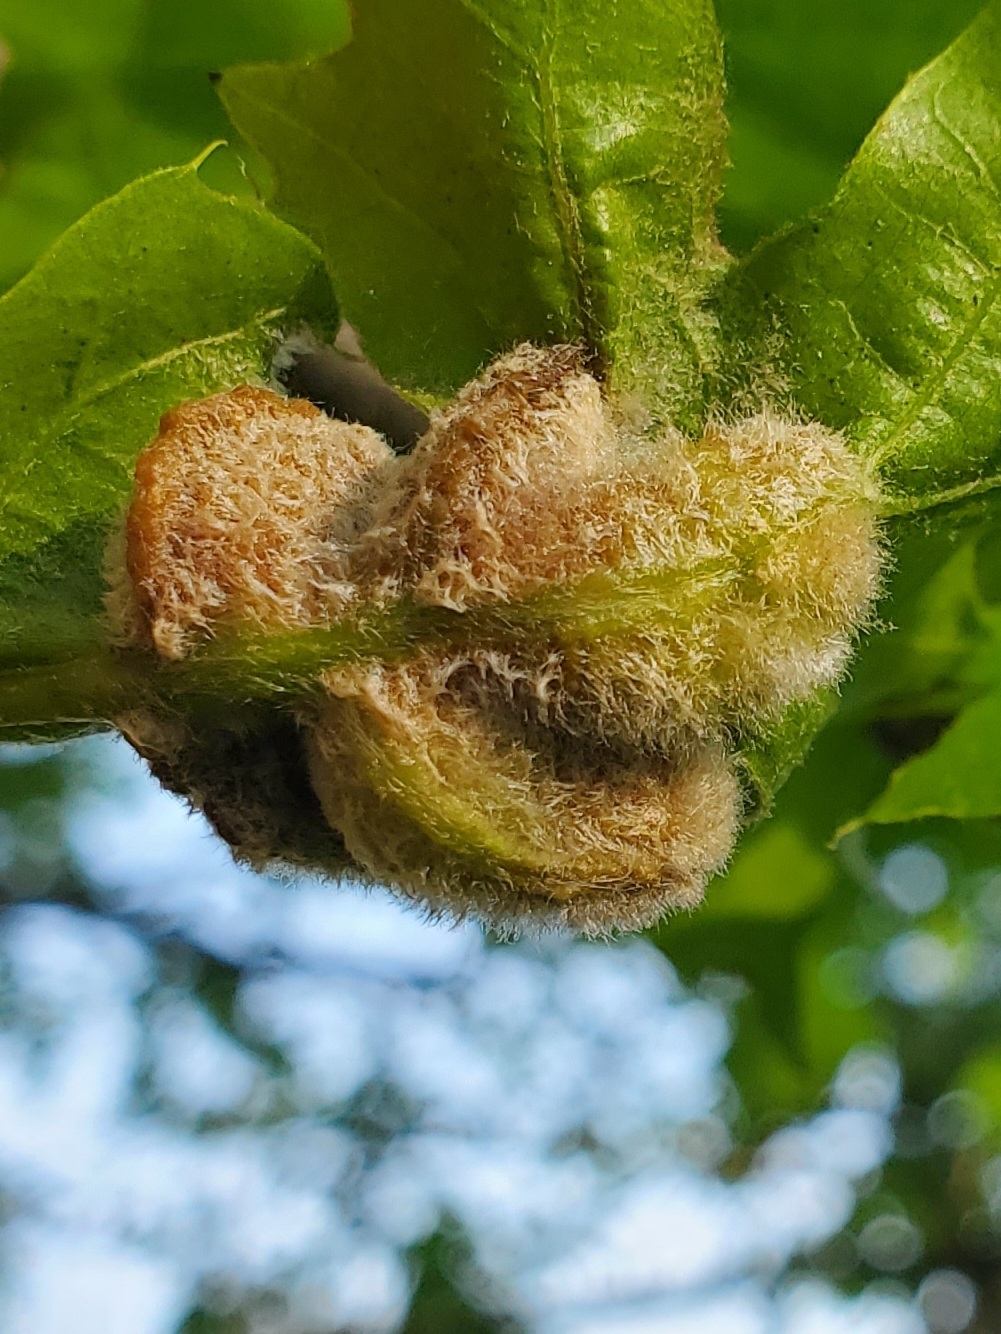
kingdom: Animalia
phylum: Arthropoda
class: Insecta
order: Diptera
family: Cecidomyiidae
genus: Macrodiplosis
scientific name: Macrodiplosis niveipila
